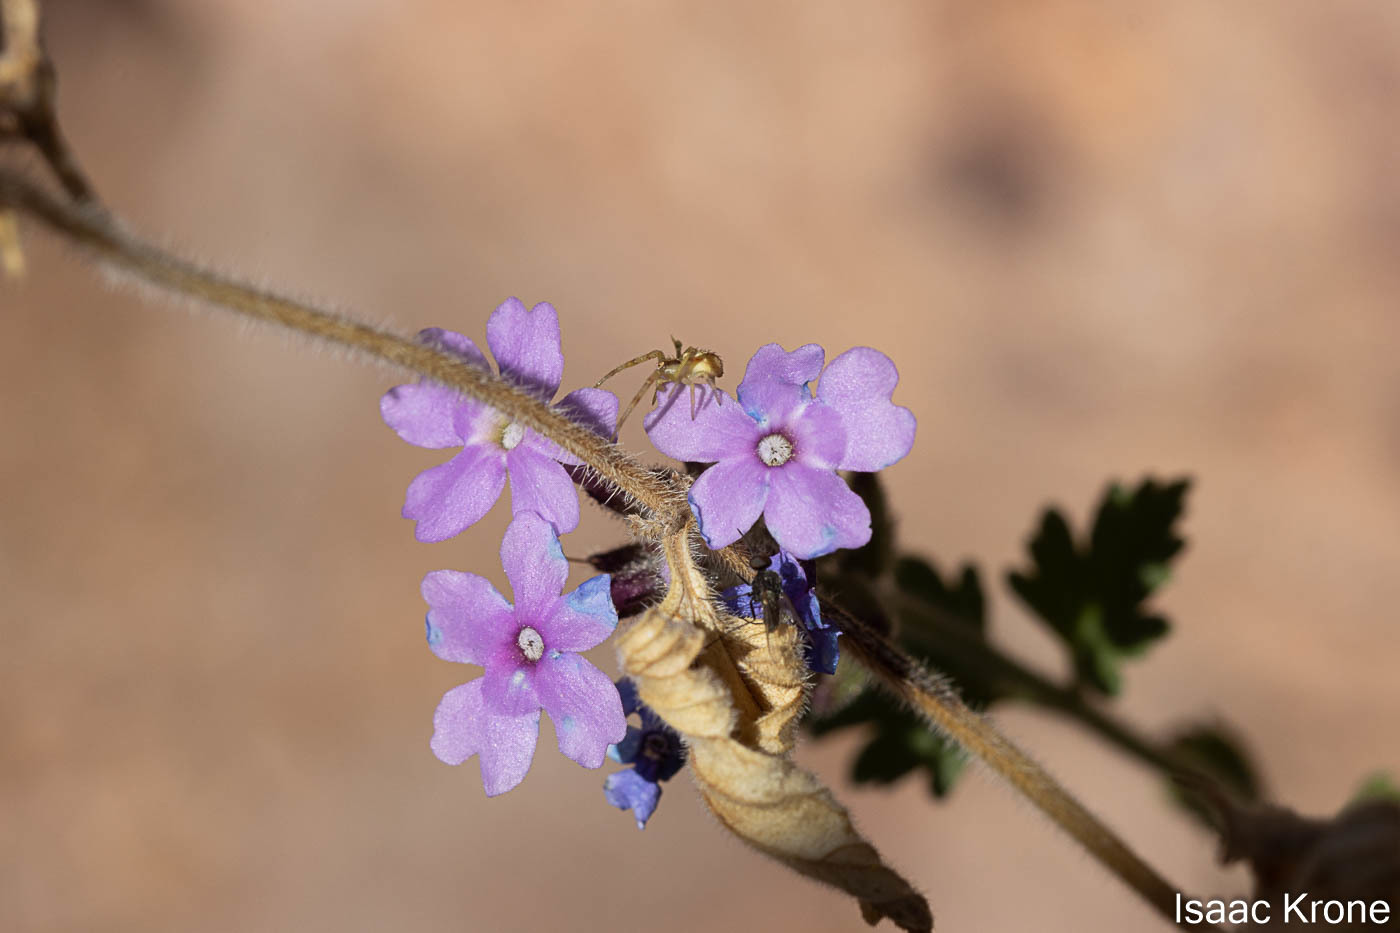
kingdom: Plantae
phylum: Tracheophyta
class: Magnoliopsida
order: Lamiales
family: Verbenaceae
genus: Verbena
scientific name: Verbena gooddingii
